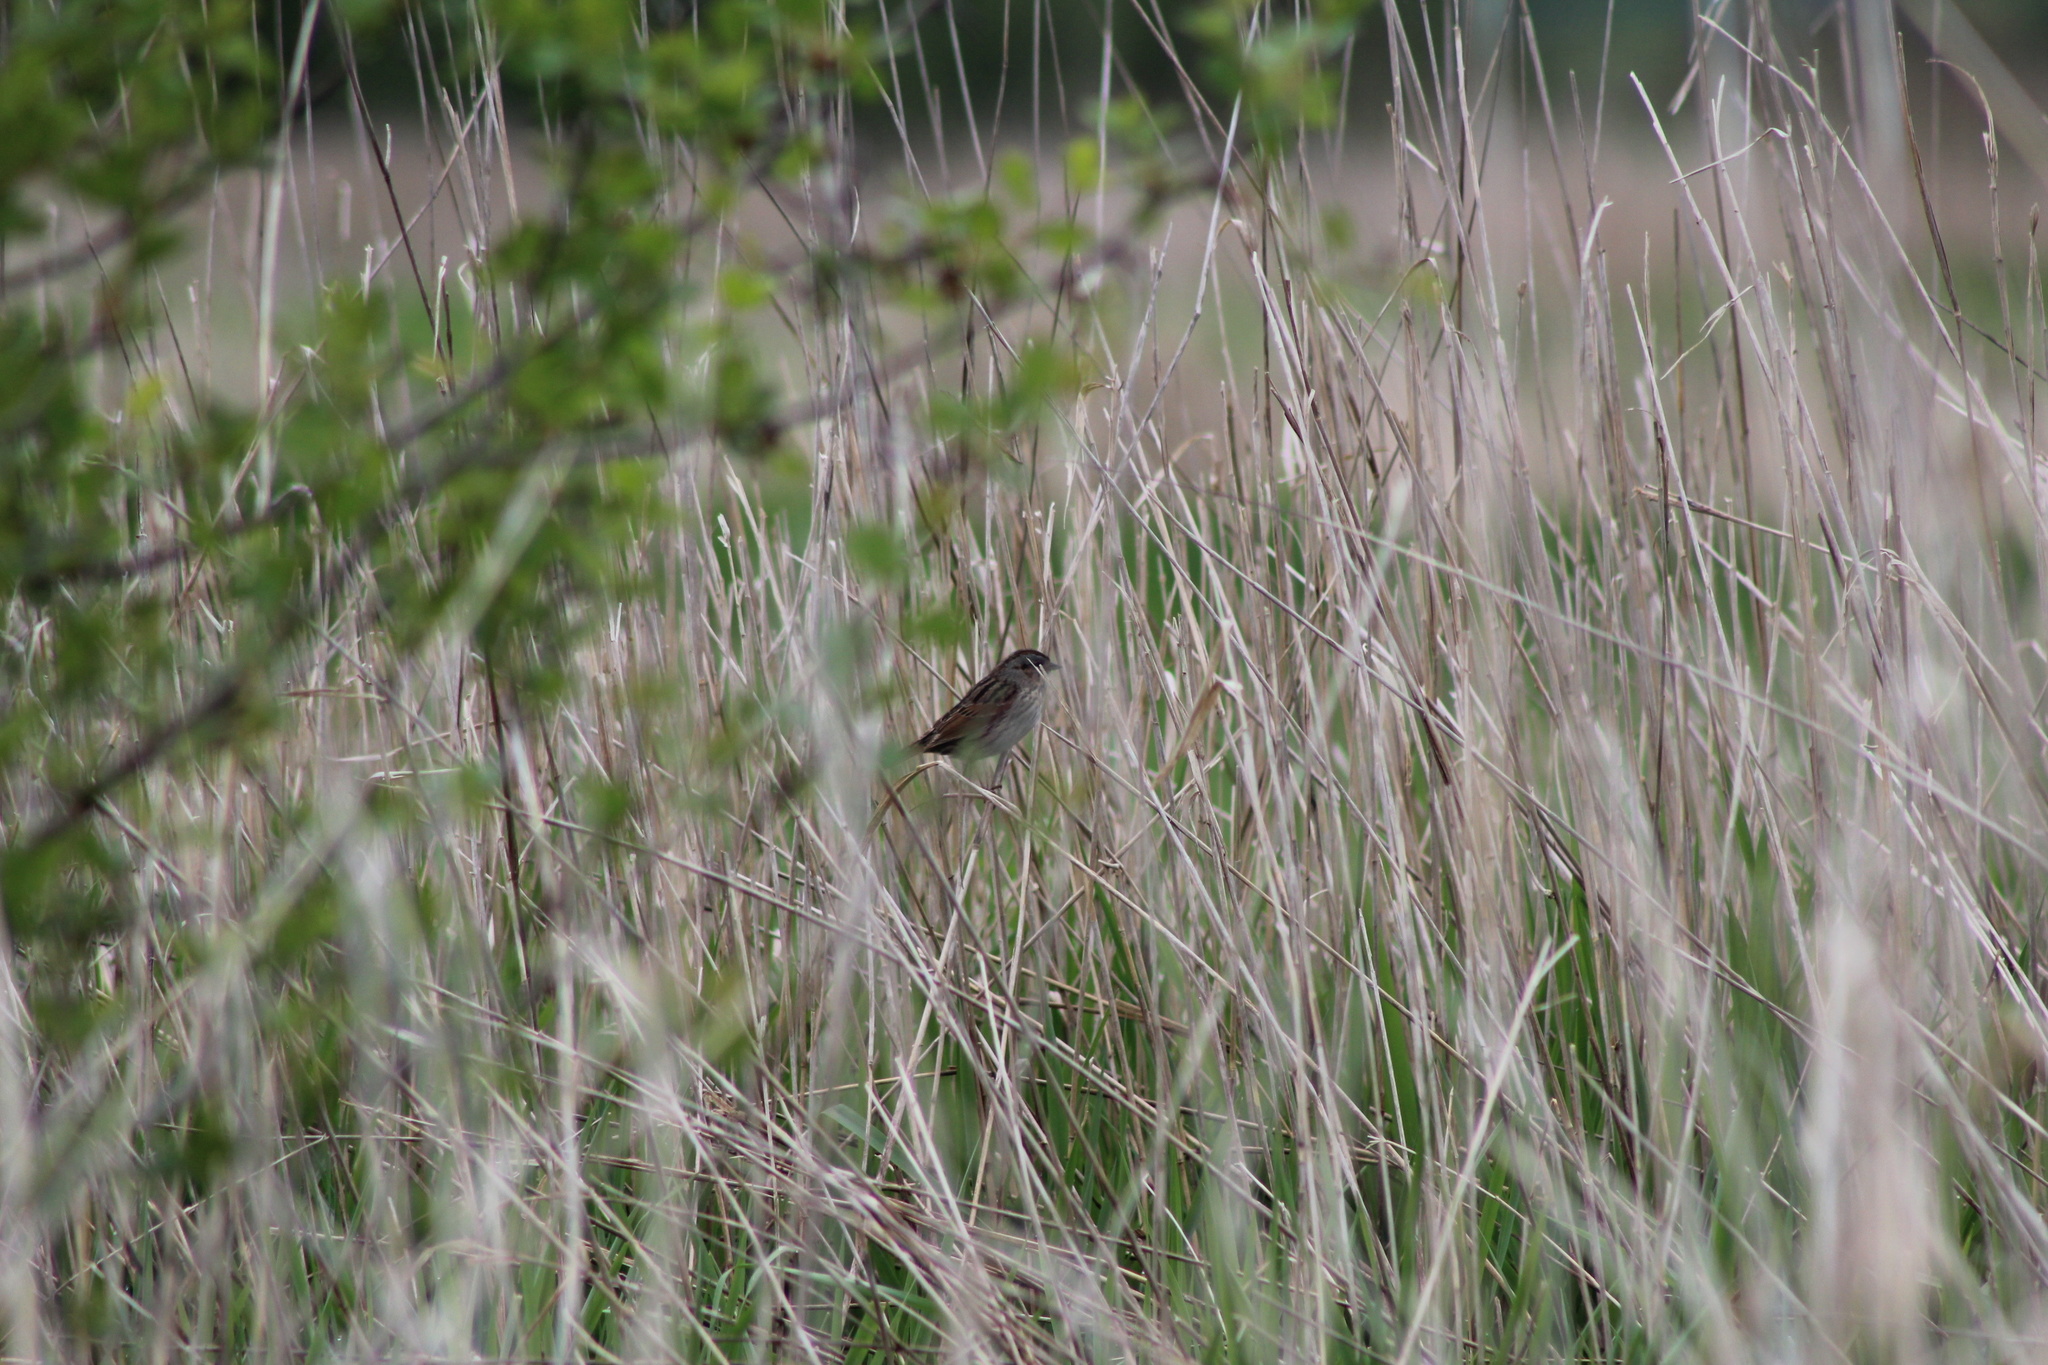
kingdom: Animalia
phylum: Chordata
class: Aves
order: Passeriformes
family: Passerellidae
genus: Melospiza
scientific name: Melospiza georgiana
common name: Swamp sparrow
